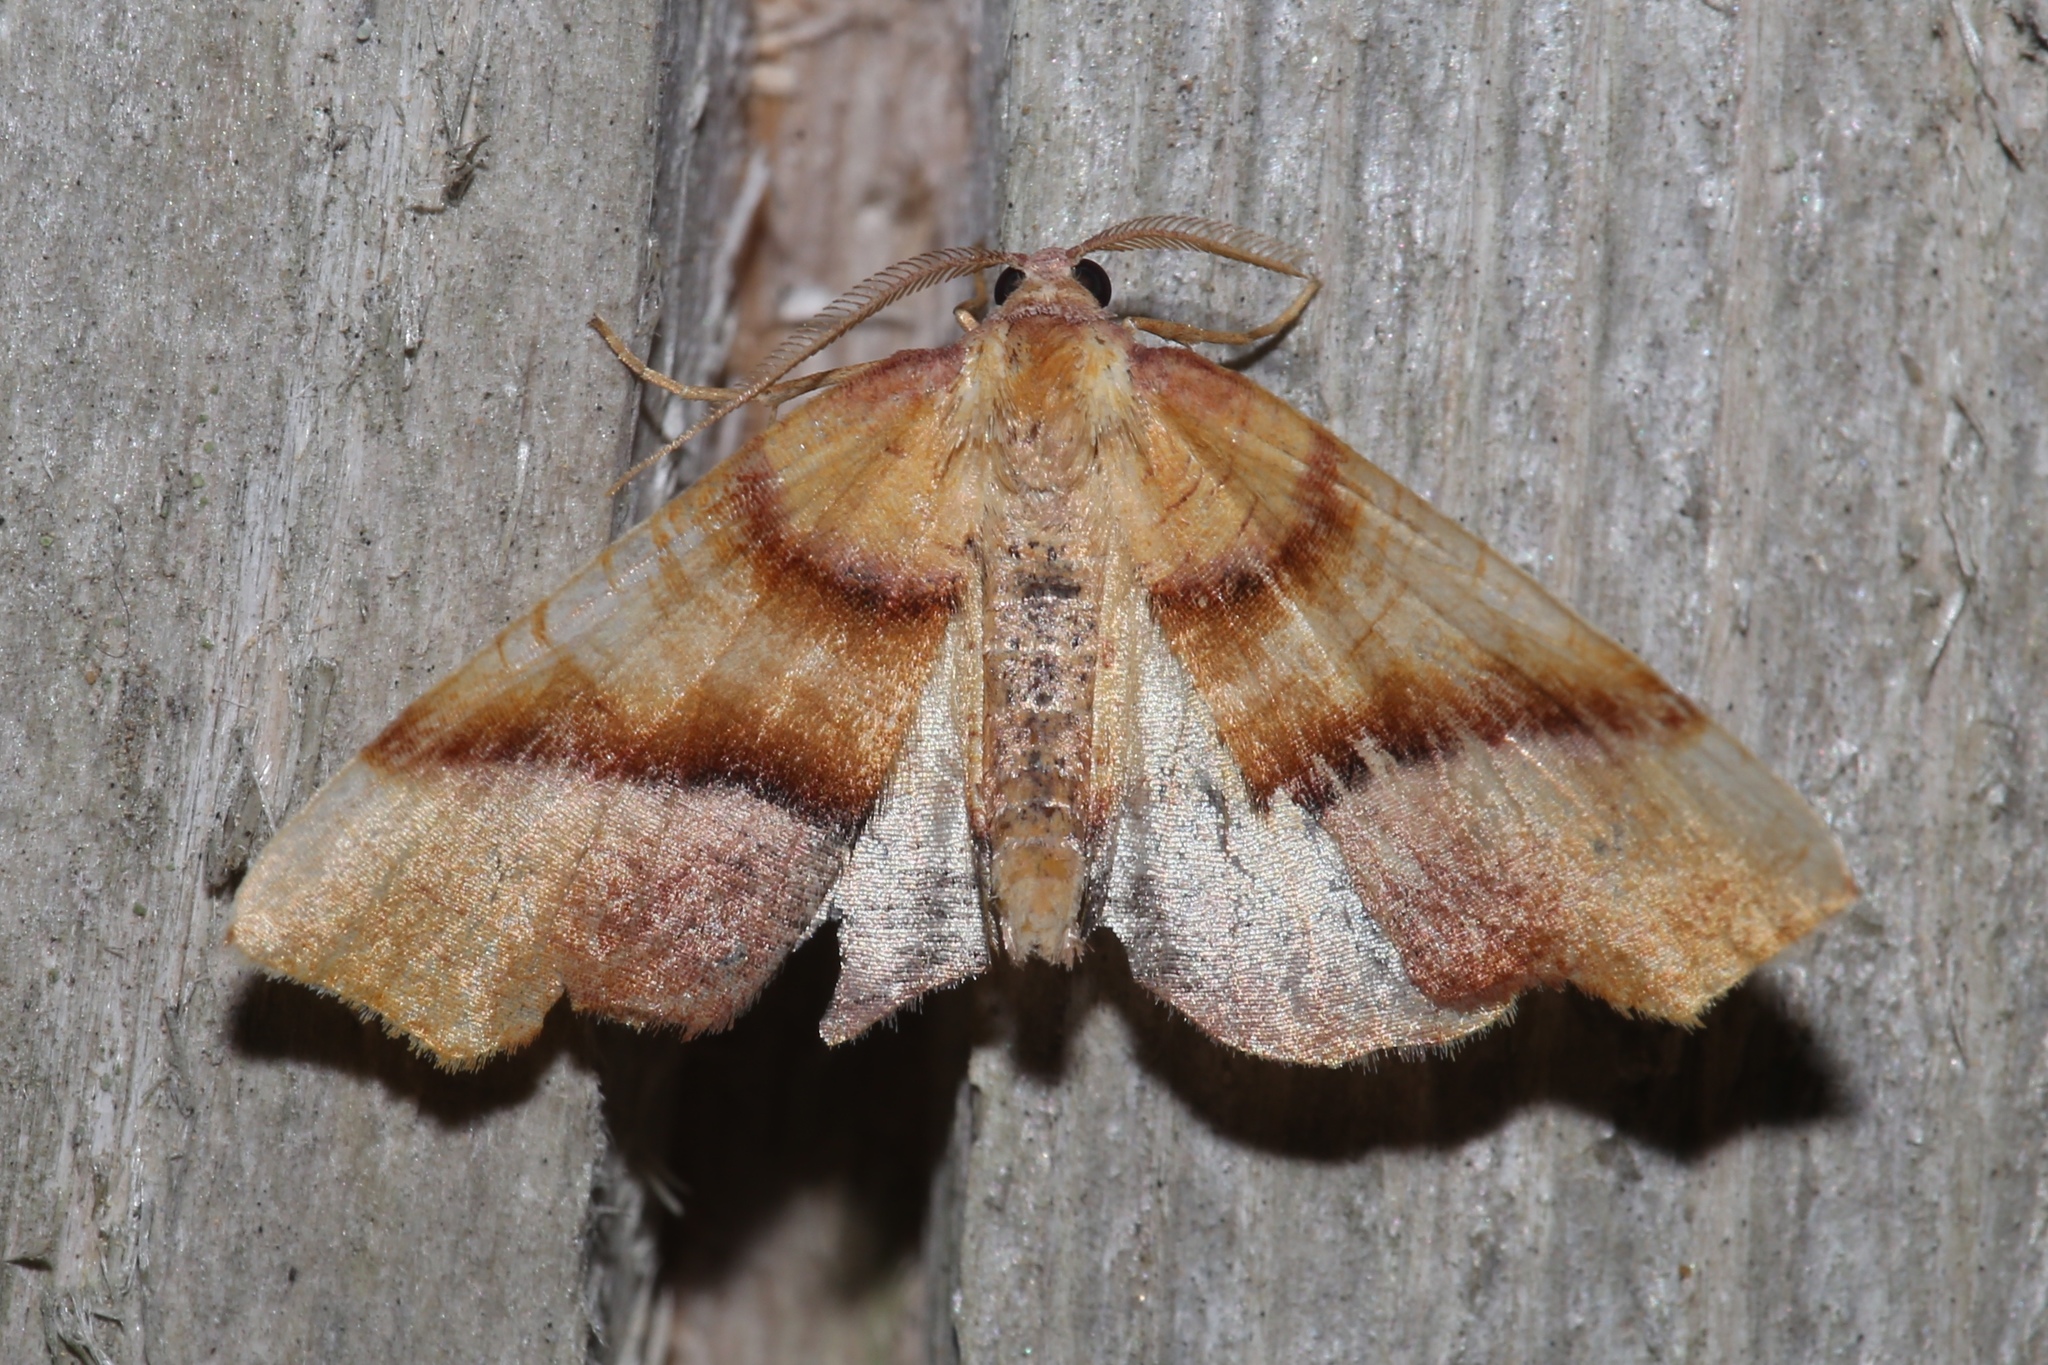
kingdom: Animalia
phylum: Arthropoda
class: Insecta
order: Lepidoptera
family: Geometridae
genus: Plagodis
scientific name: Plagodis phlogosaria
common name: Straight-lined plagodis
